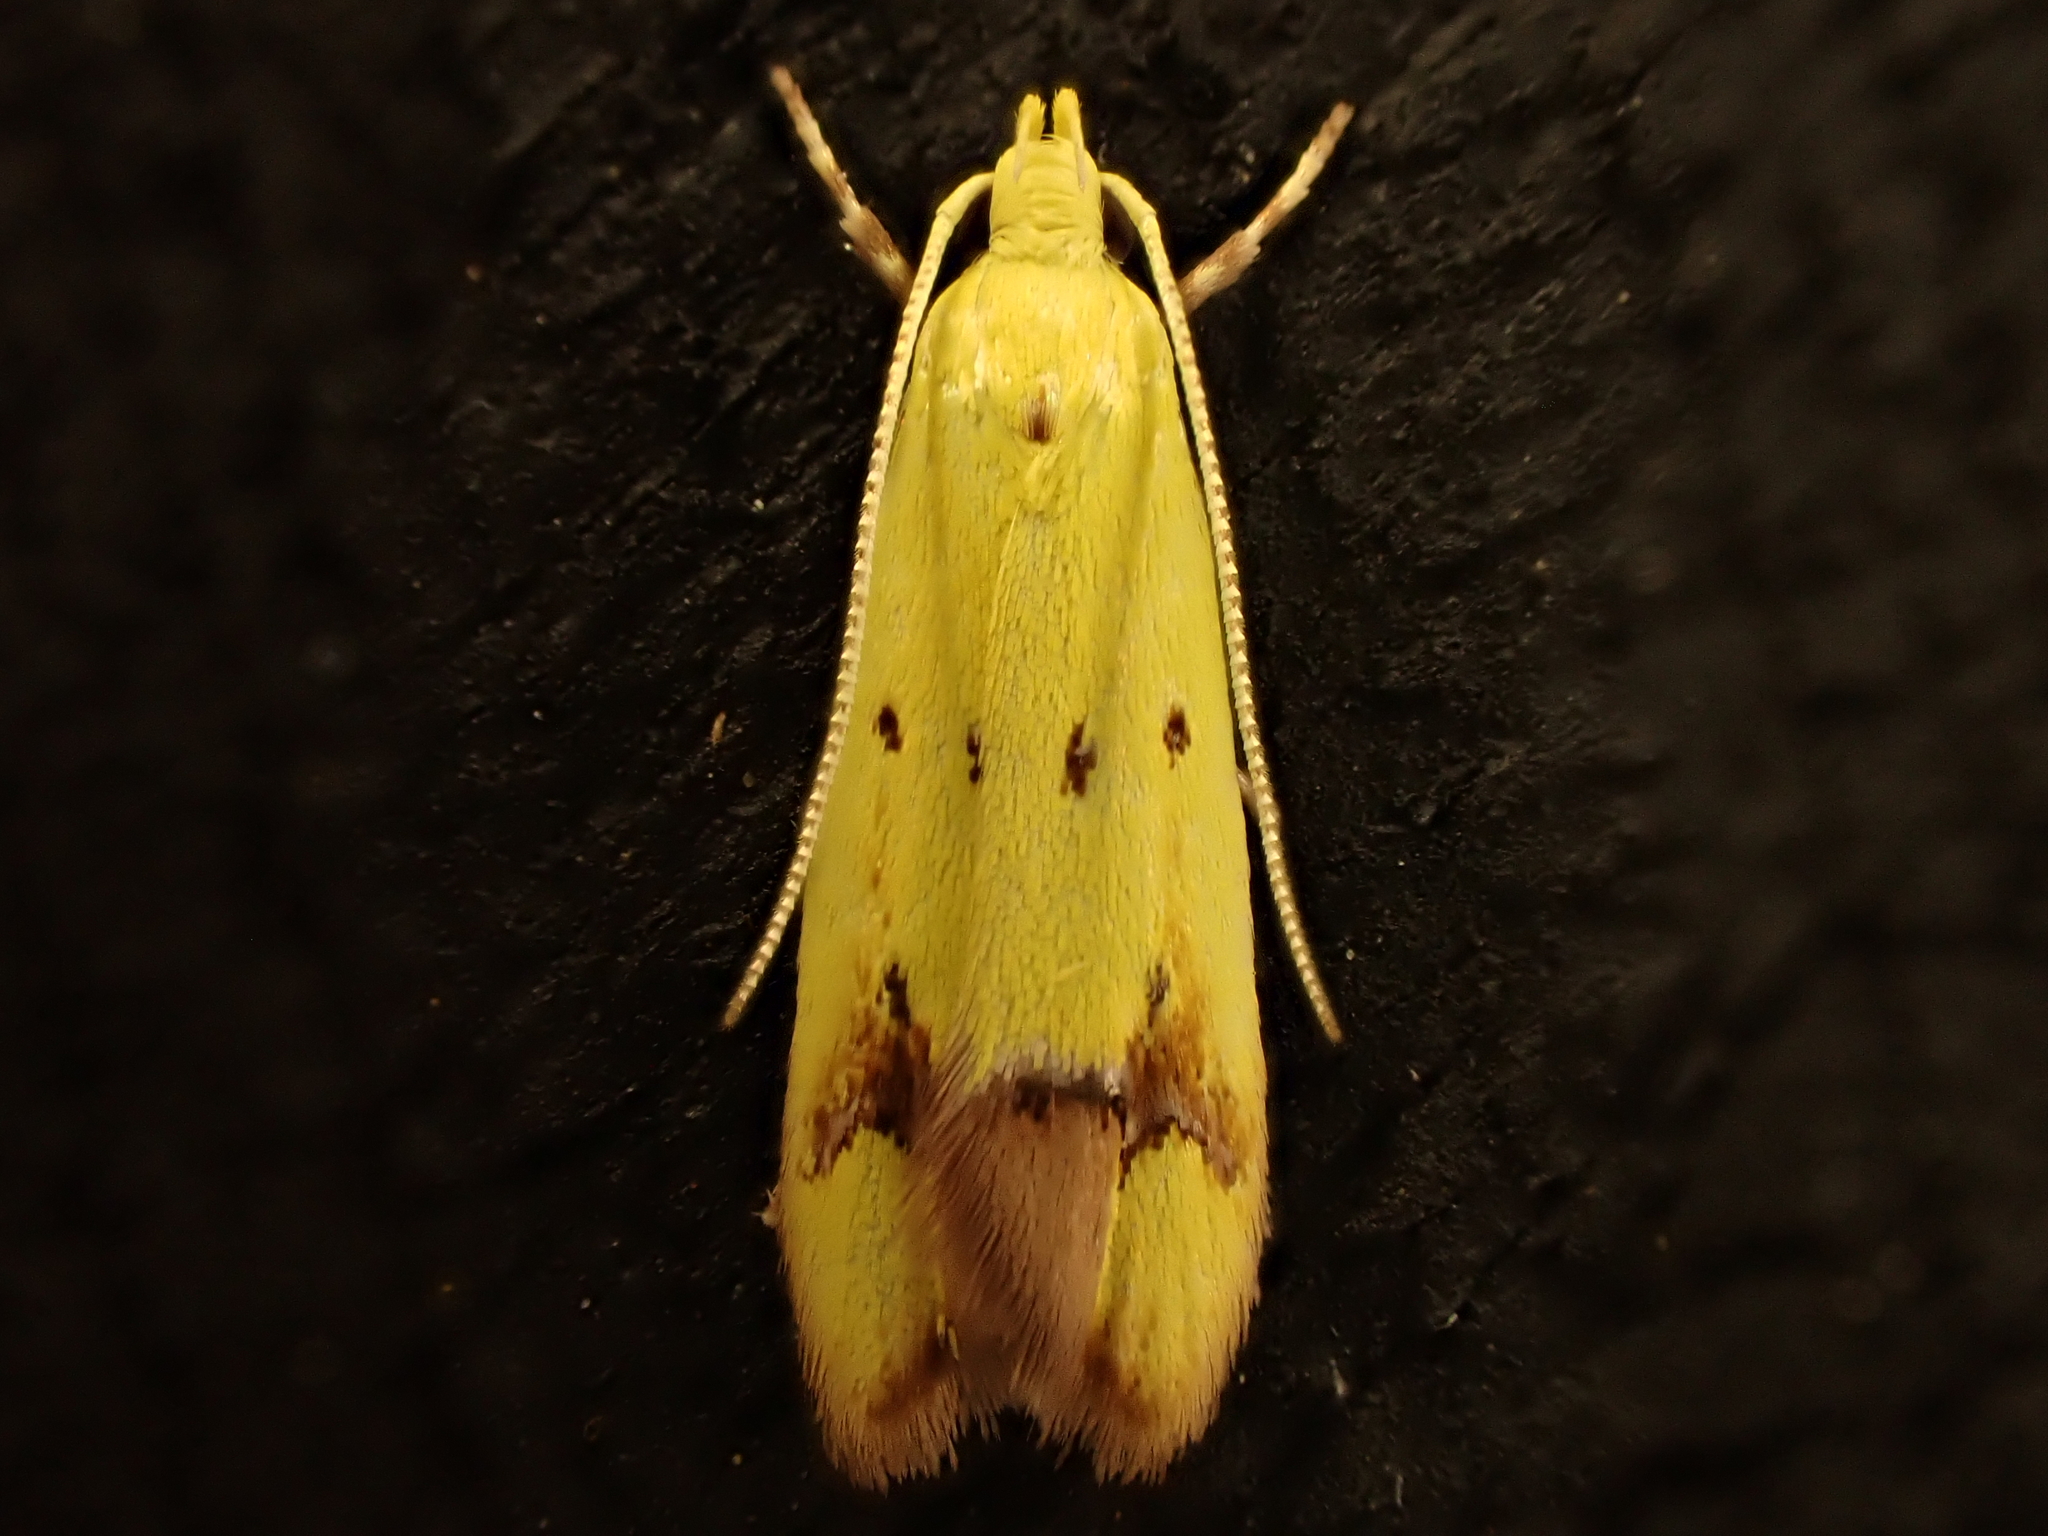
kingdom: Animalia
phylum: Arthropoda
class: Insecta
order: Lepidoptera
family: Oecophoridae
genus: Gymnobathra
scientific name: Gymnobathra flavidella
